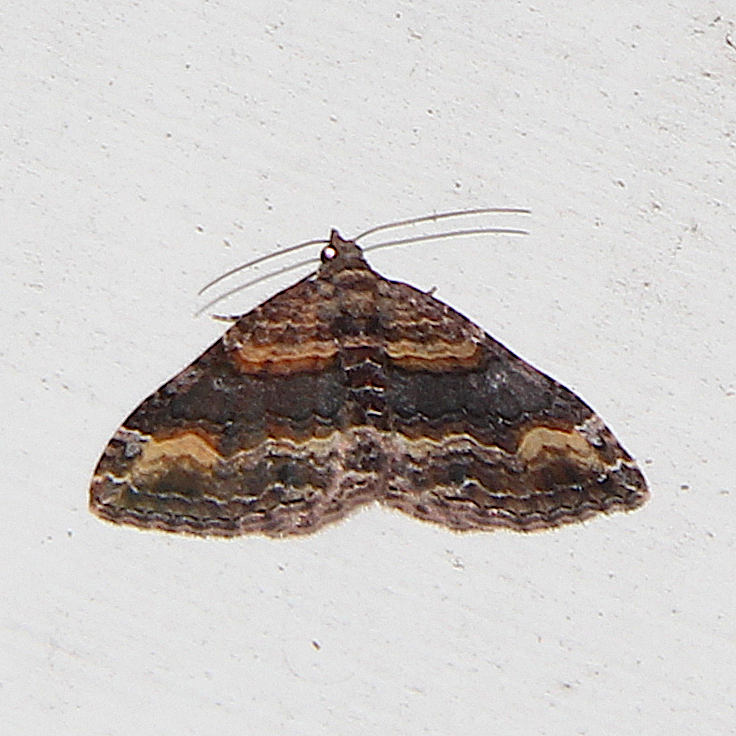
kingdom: Animalia
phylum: Arthropoda
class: Insecta
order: Lepidoptera
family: Geometridae
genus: Epyaxa
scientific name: Epyaxa lucidata
